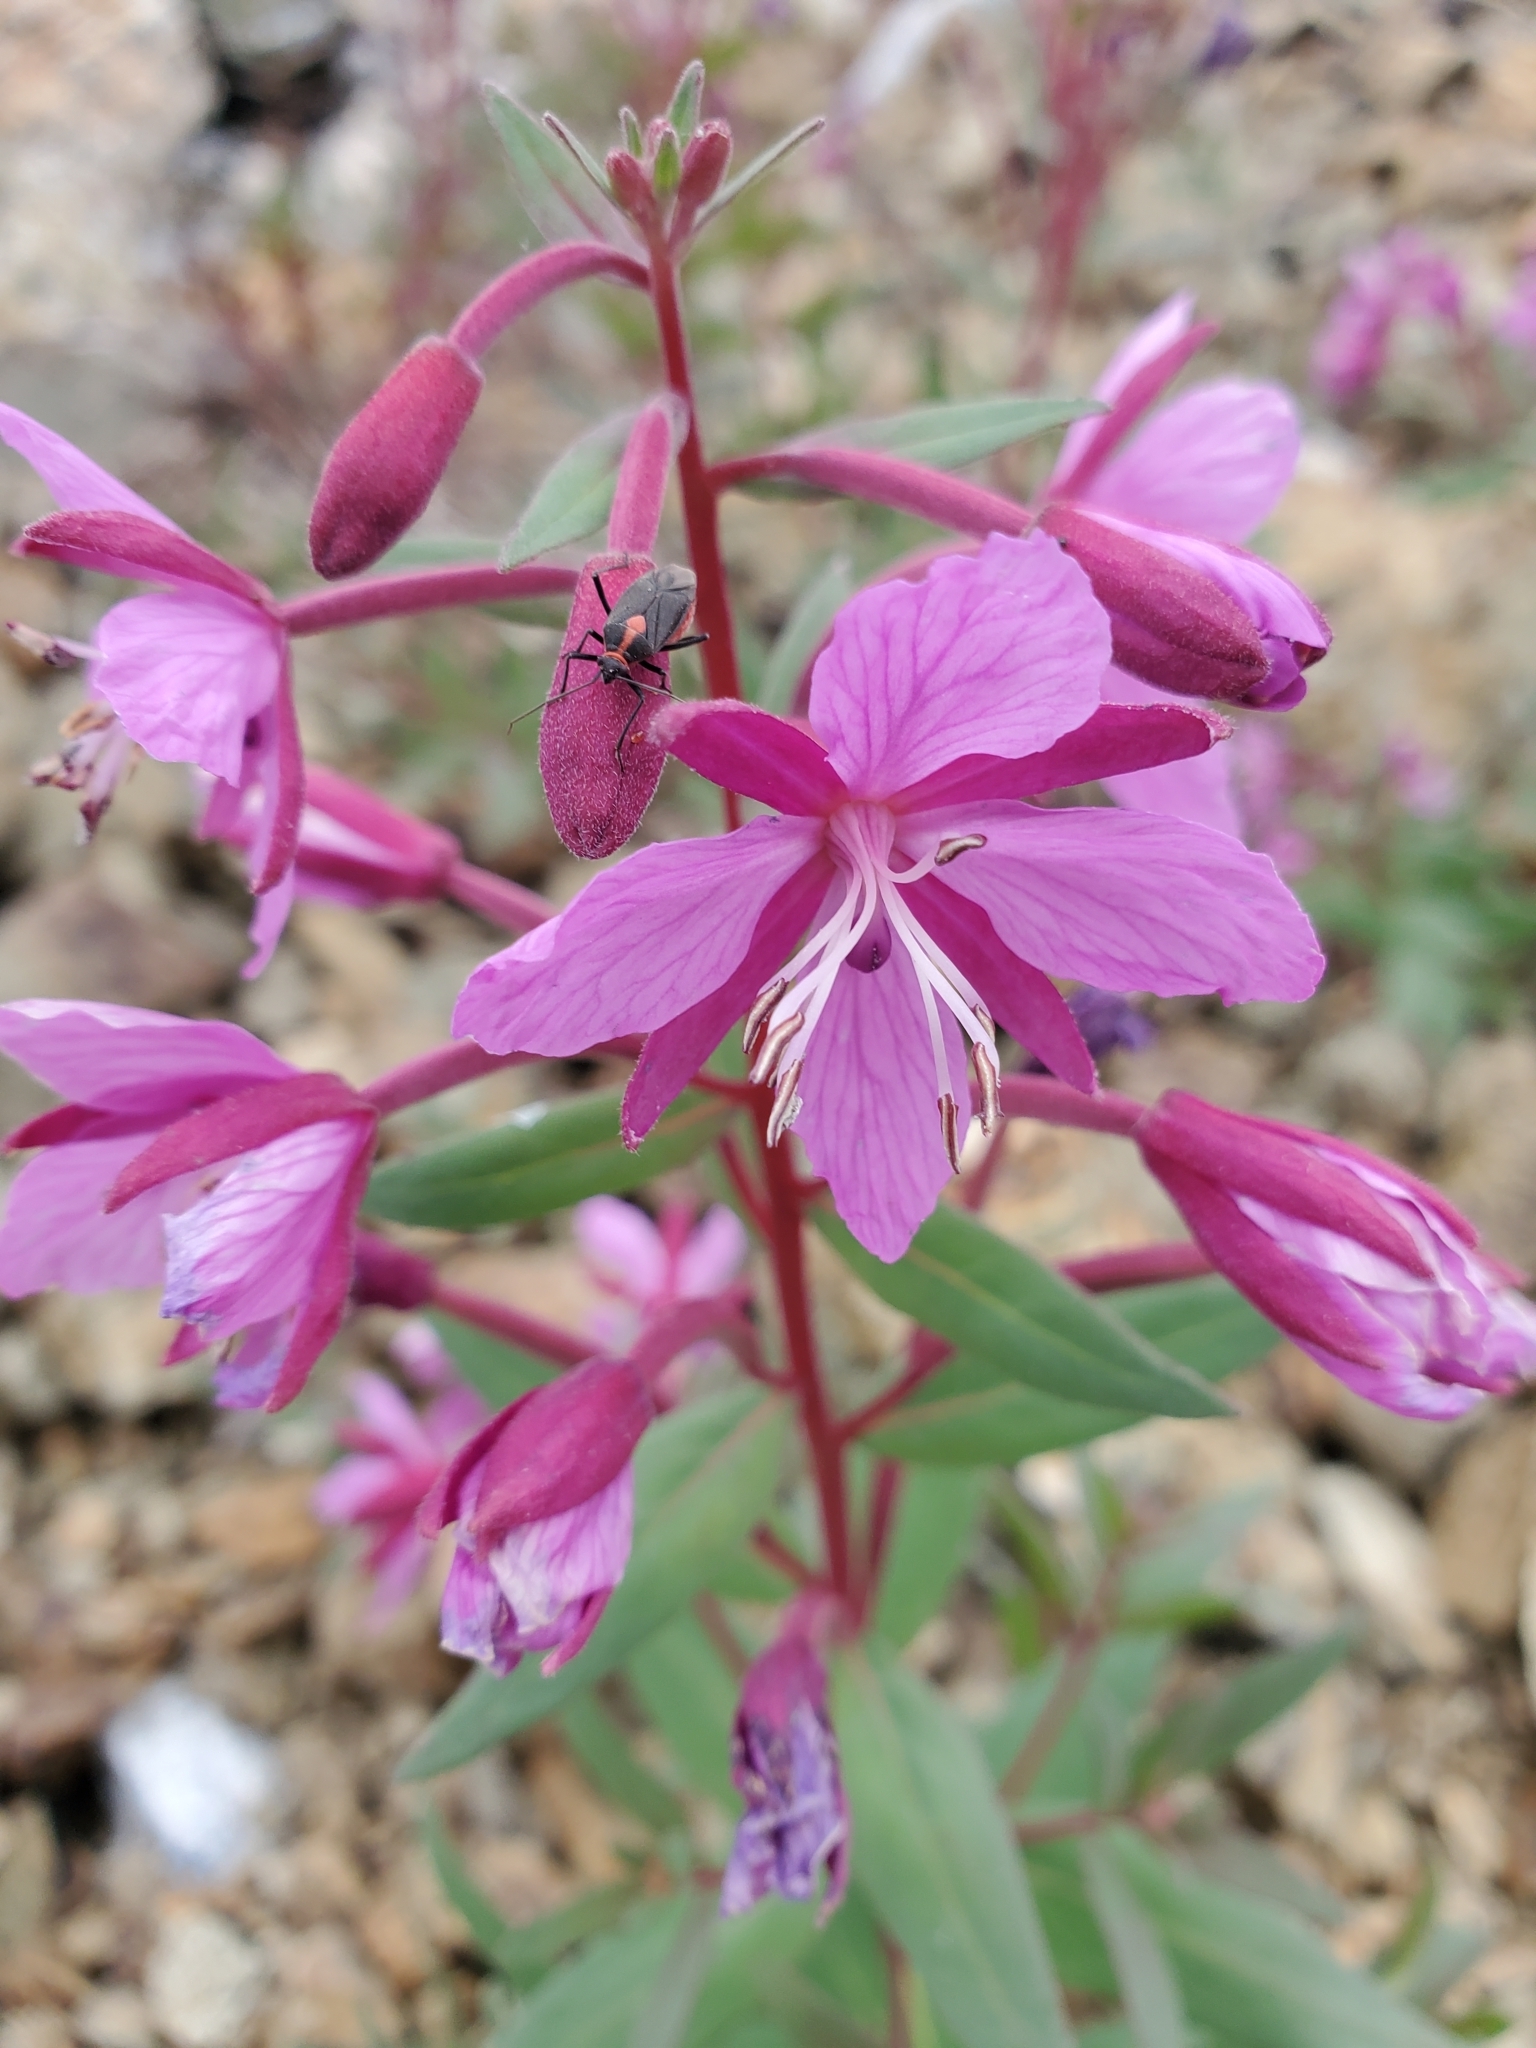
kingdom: Plantae
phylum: Tracheophyta
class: Magnoliopsida
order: Myrtales
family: Onagraceae
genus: Chamaenerion
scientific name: Chamaenerion latifolium
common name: Dwarf fireweed
